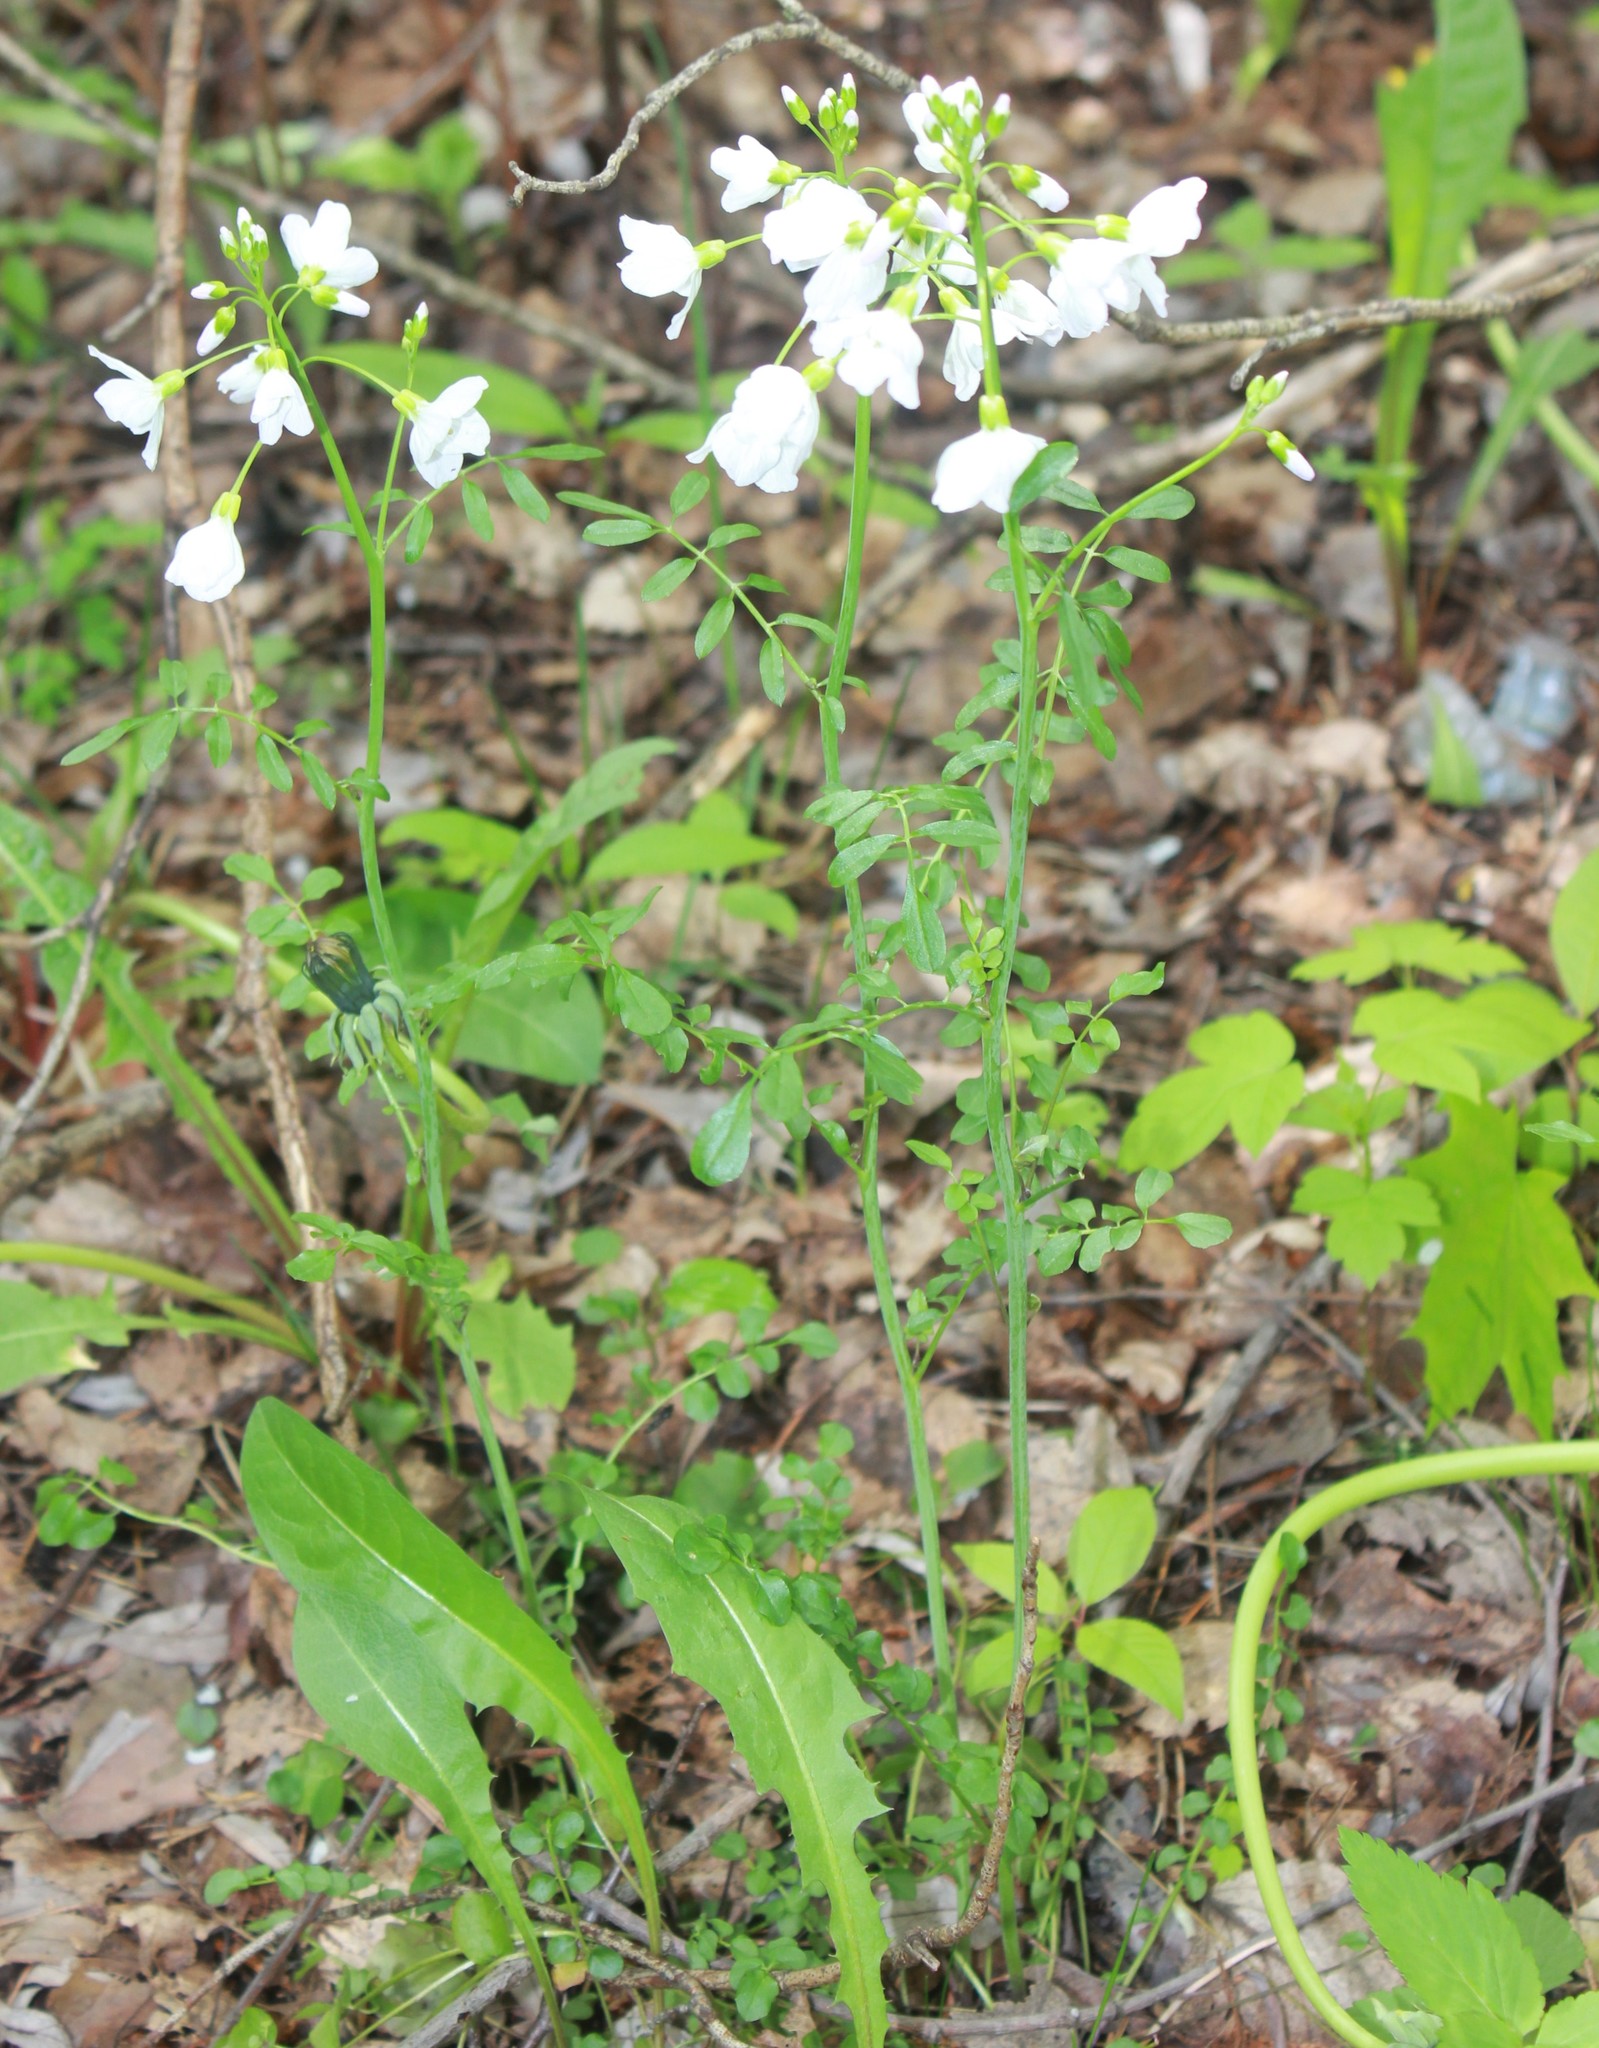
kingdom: Plantae
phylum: Tracheophyta
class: Magnoliopsida
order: Brassicales
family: Brassicaceae
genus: Cardamine
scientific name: Cardamine dentata
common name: Toothed bittercress
